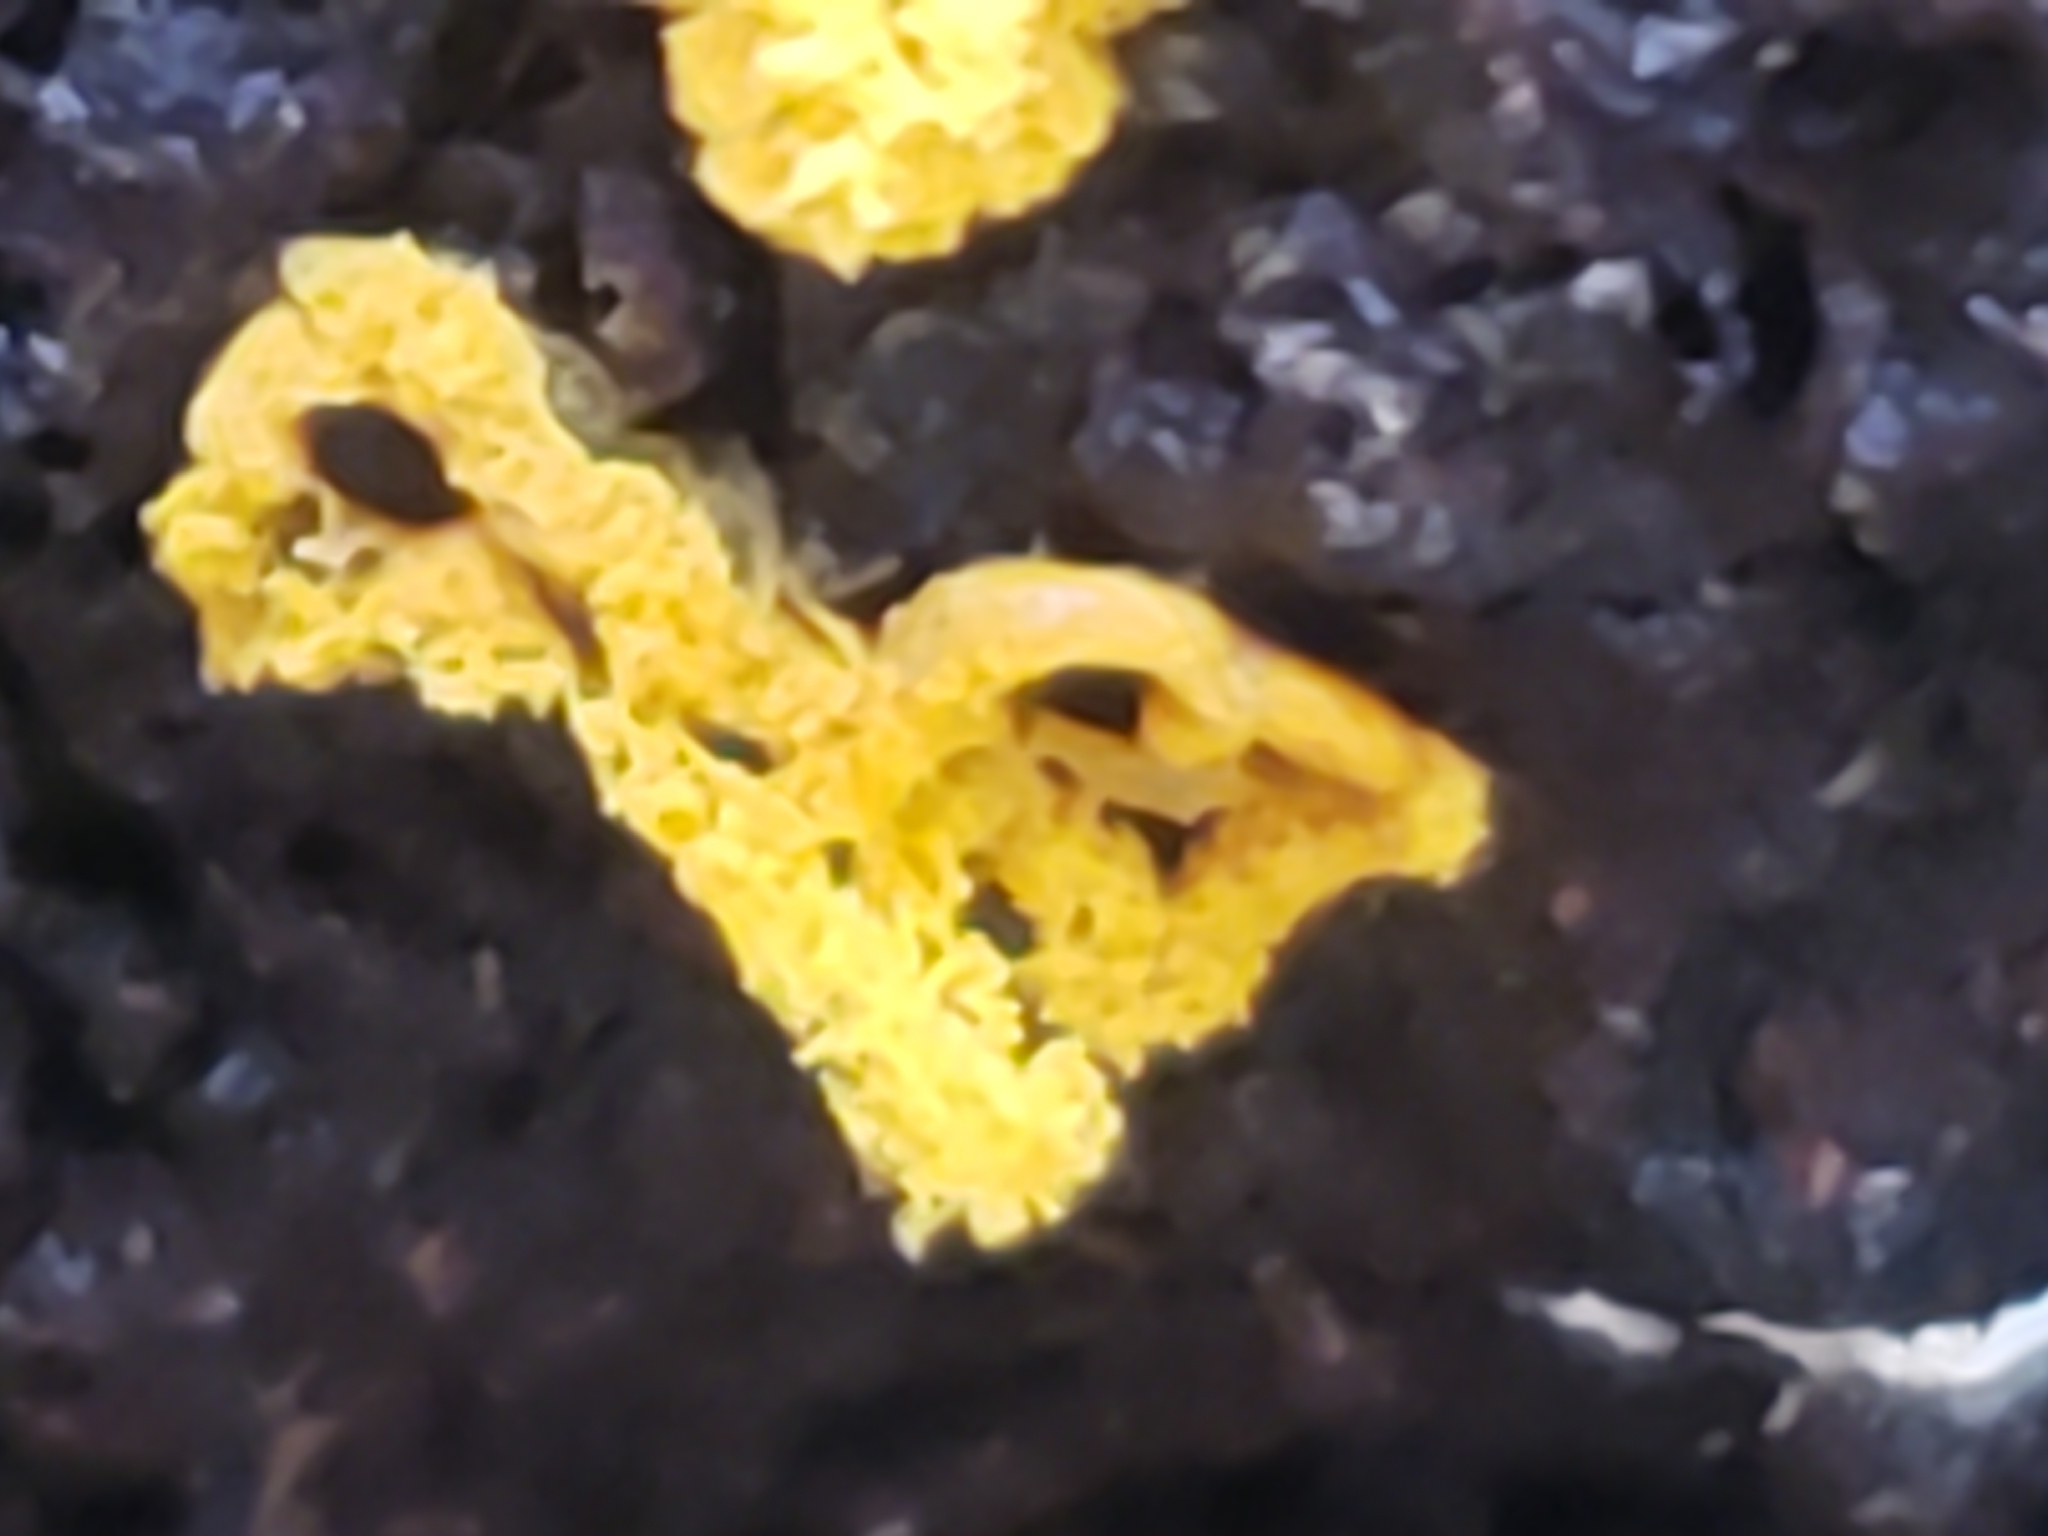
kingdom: Protozoa
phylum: Mycetozoa
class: Myxomycetes
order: Trichiales
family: Arcyriaceae
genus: Hemitrichia
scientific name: Hemitrichia serpula
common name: Pretzel slime mold
